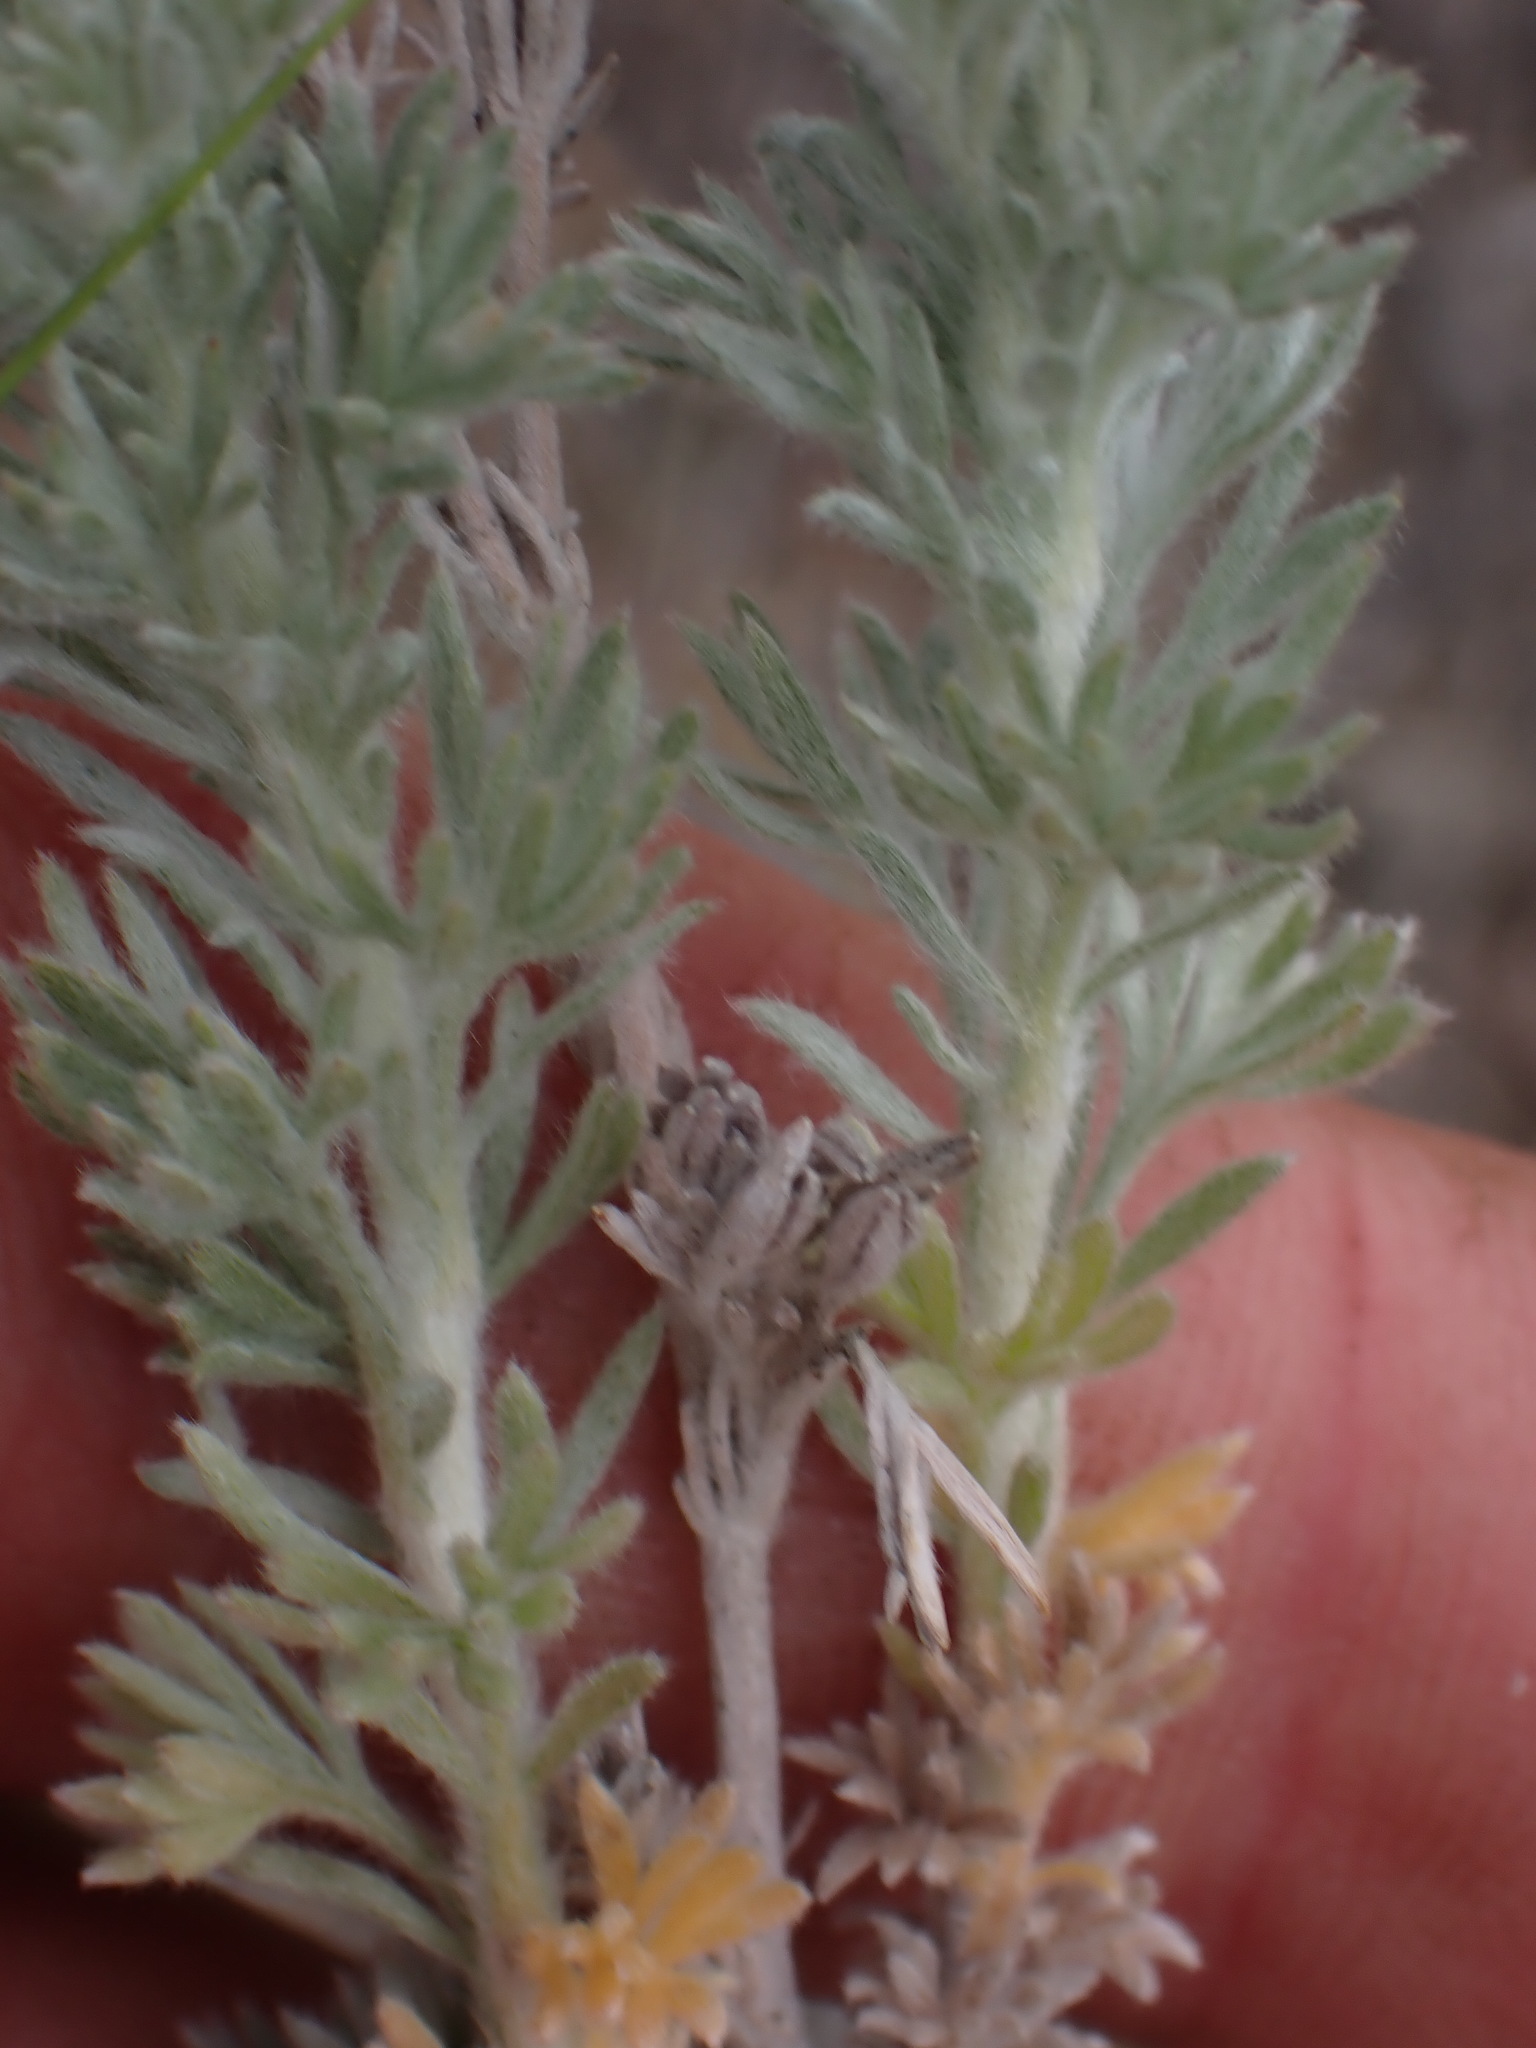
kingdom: Plantae
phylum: Tracheophyta
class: Magnoliopsida
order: Asterales
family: Asteraceae
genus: Artemisia
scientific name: Artemisia frigida
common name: Prairie sagewort
